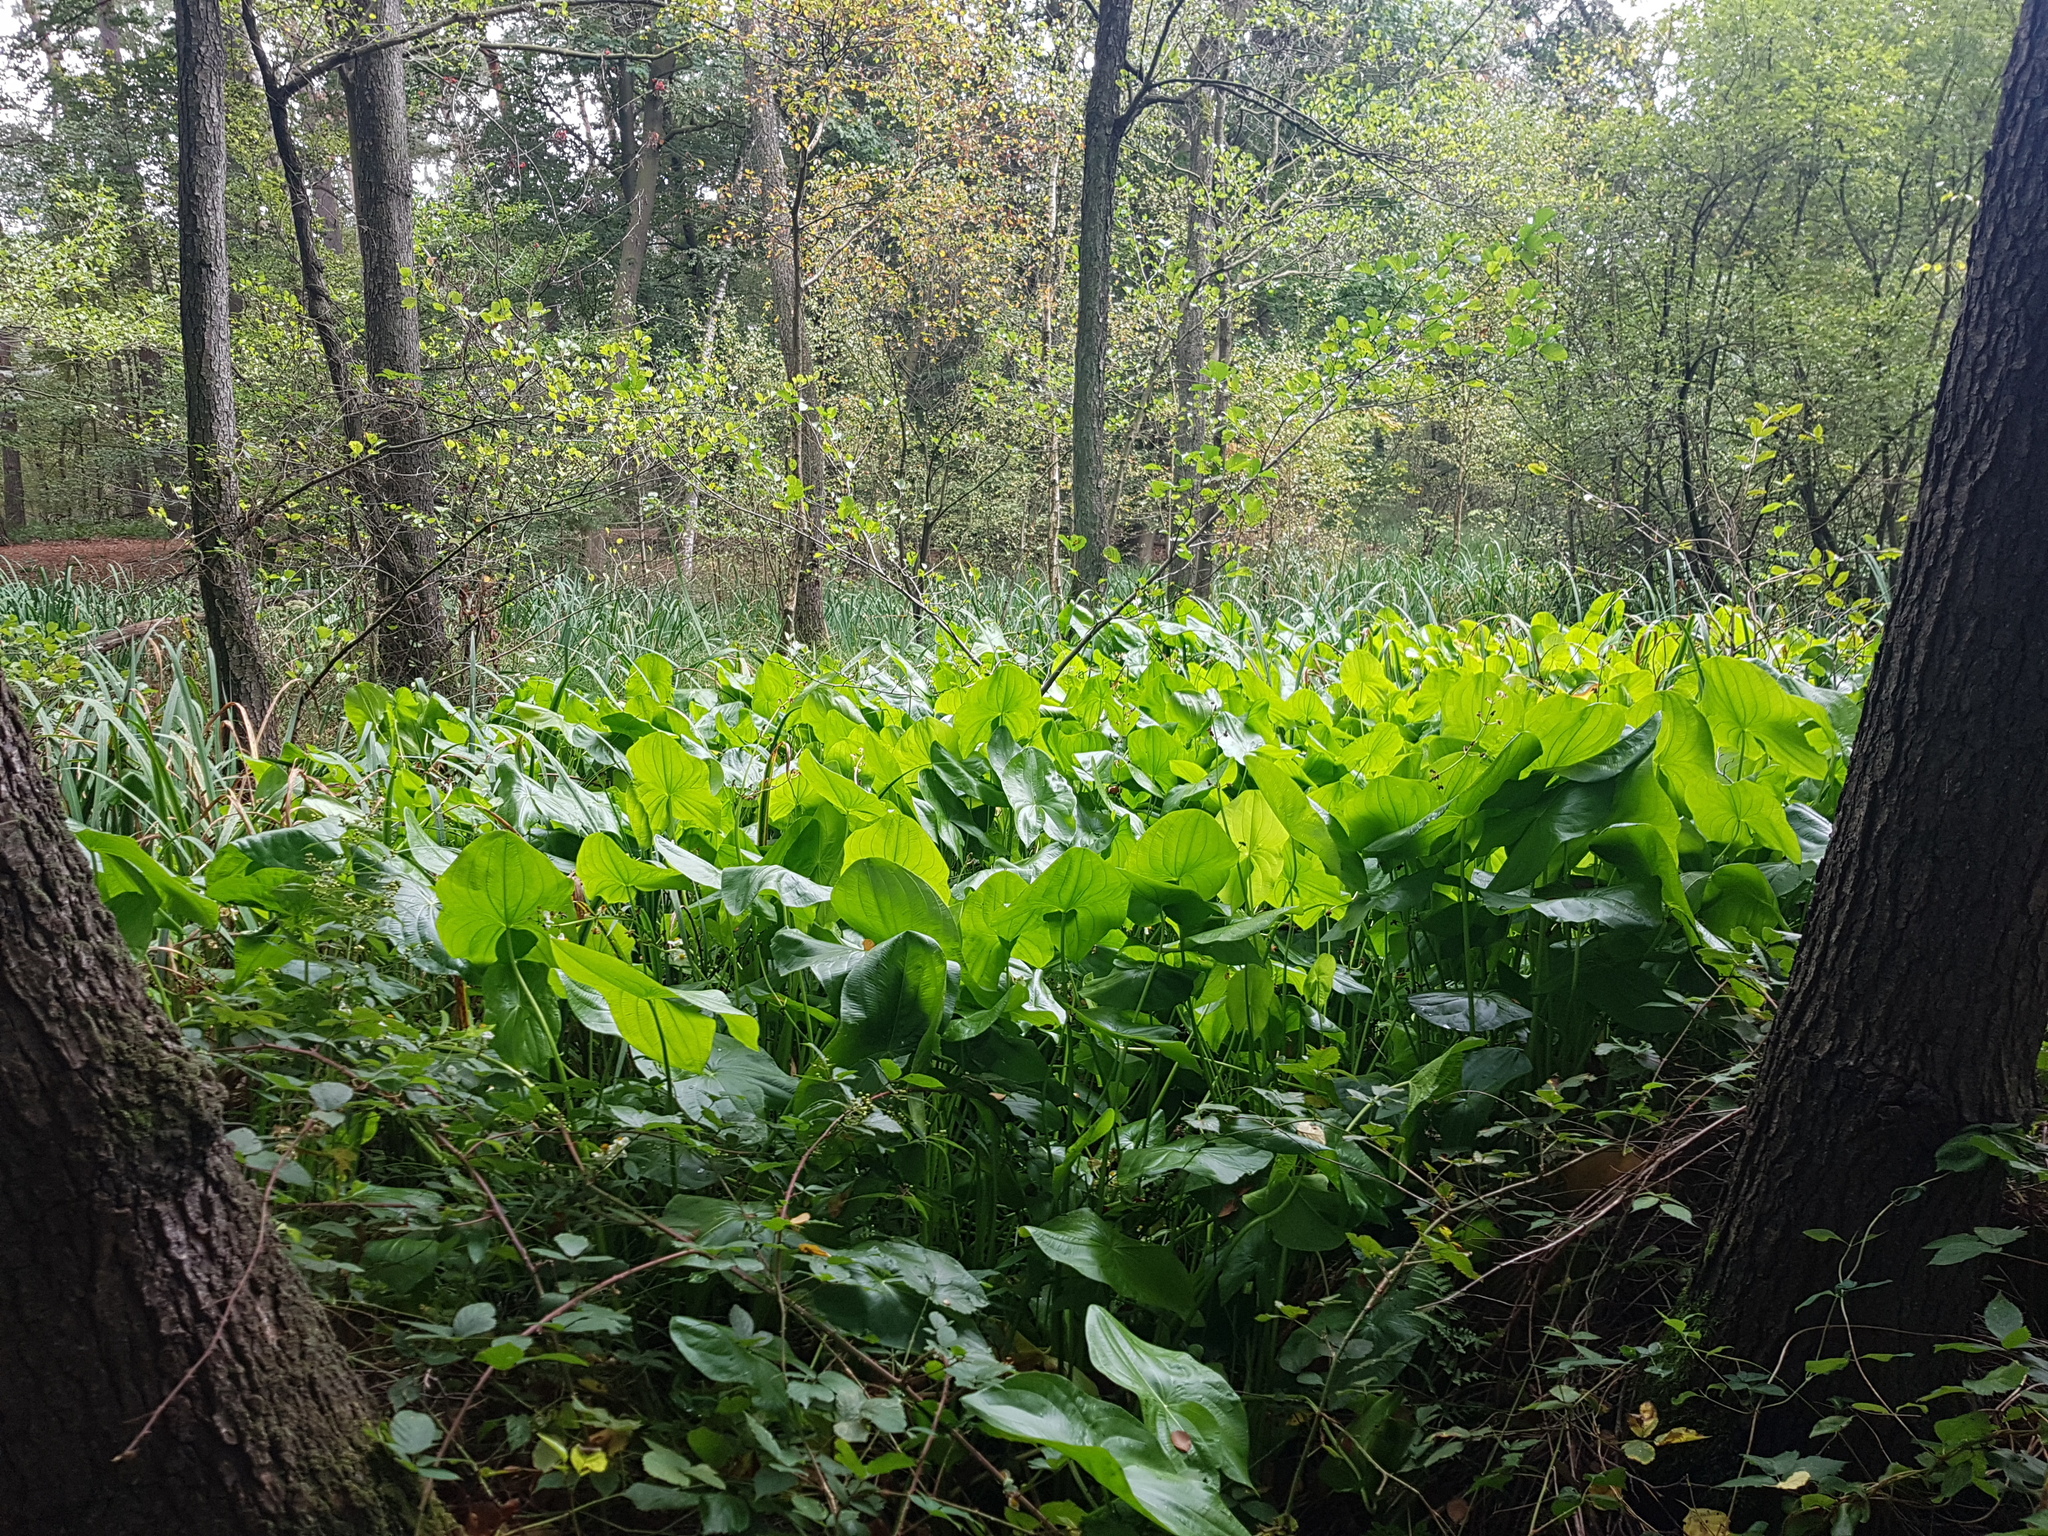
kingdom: Plantae
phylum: Tracheophyta
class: Liliopsida
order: Alismatales
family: Alismataceae
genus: Sagittaria
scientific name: Sagittaria latifolia
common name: Duck-potato
